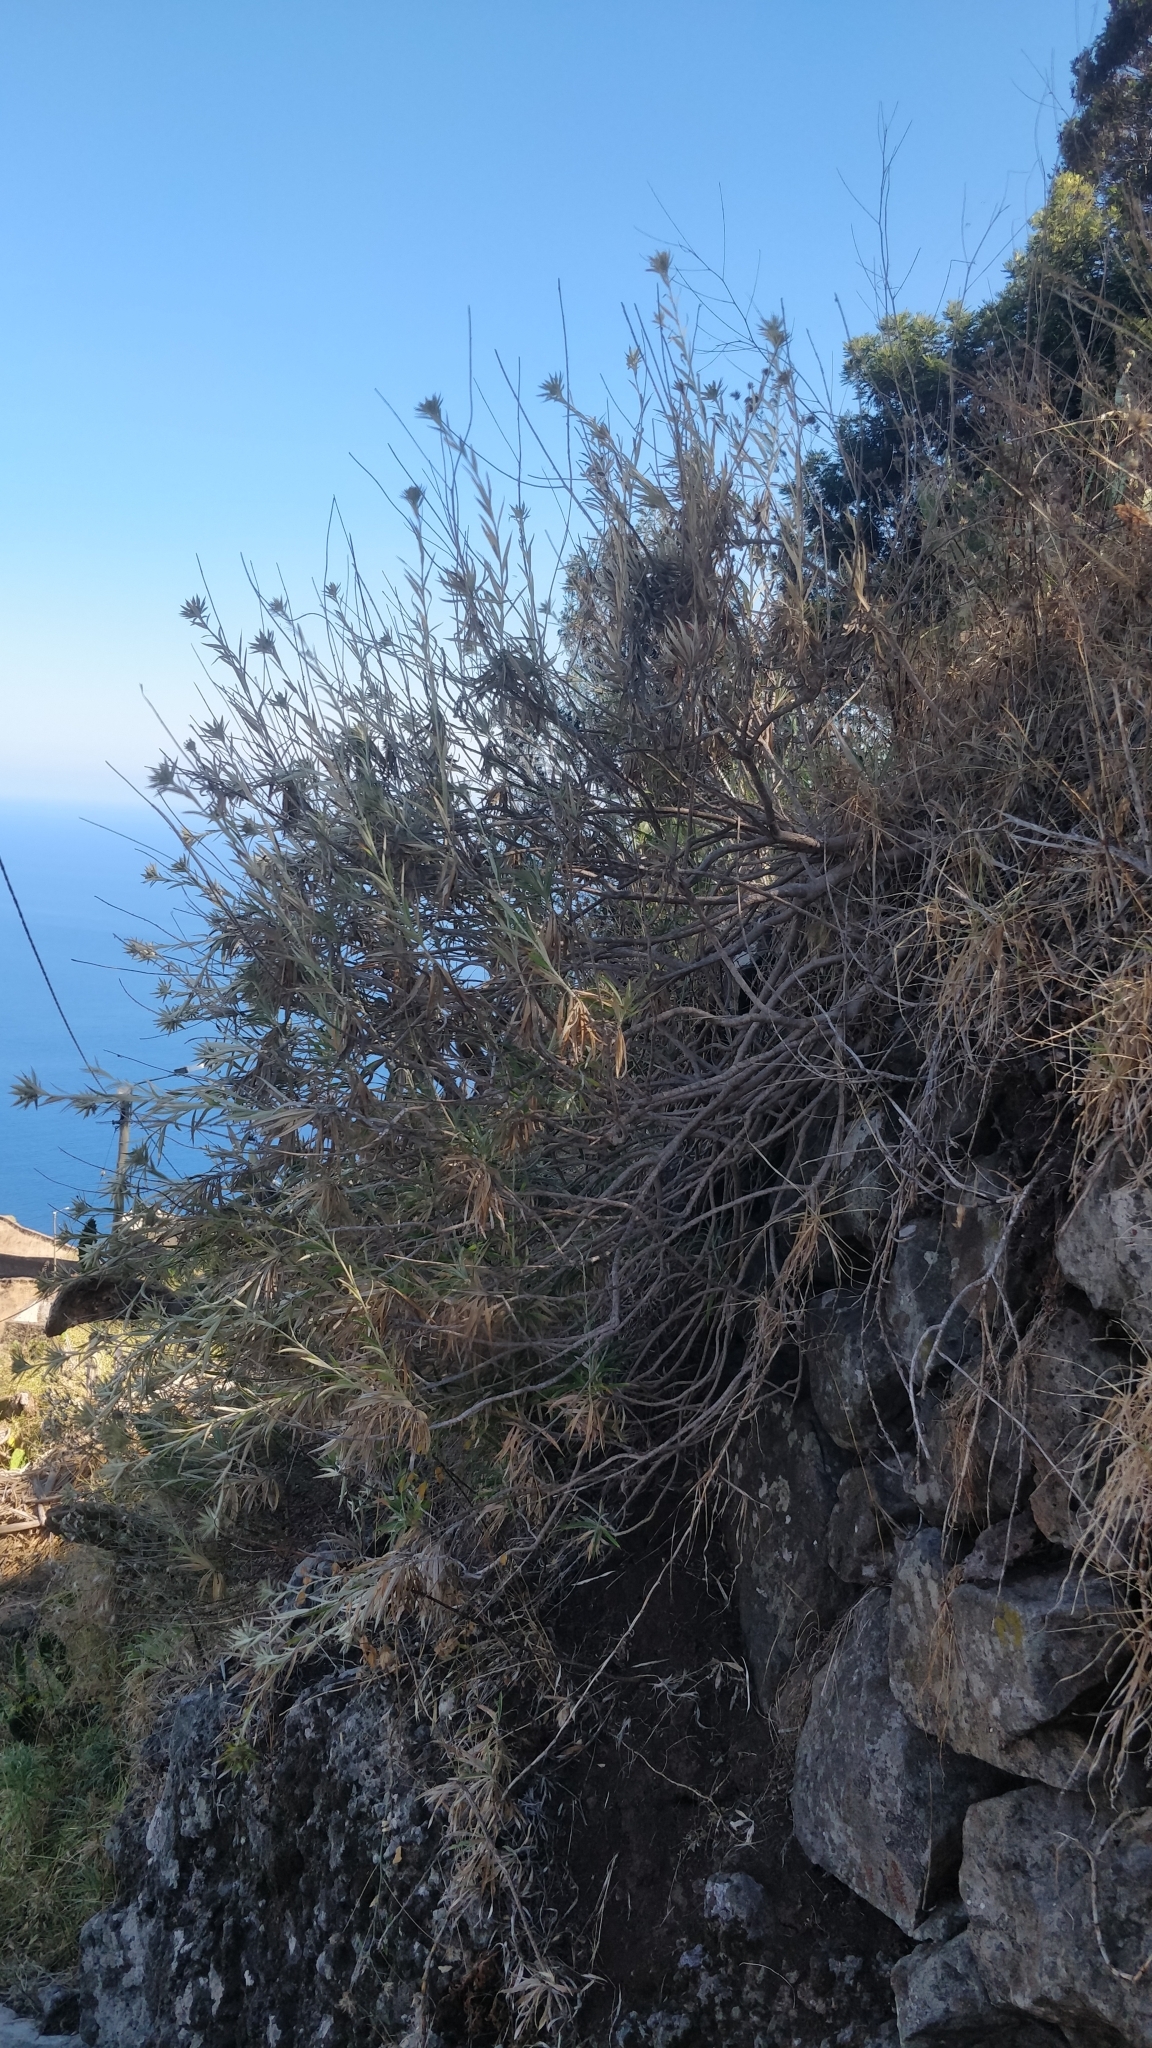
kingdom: Plantae
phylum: Tracheophyta
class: Magnoliopsida
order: Asterales
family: Asteraceae
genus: Carlina
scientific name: Carlina salicifolia
